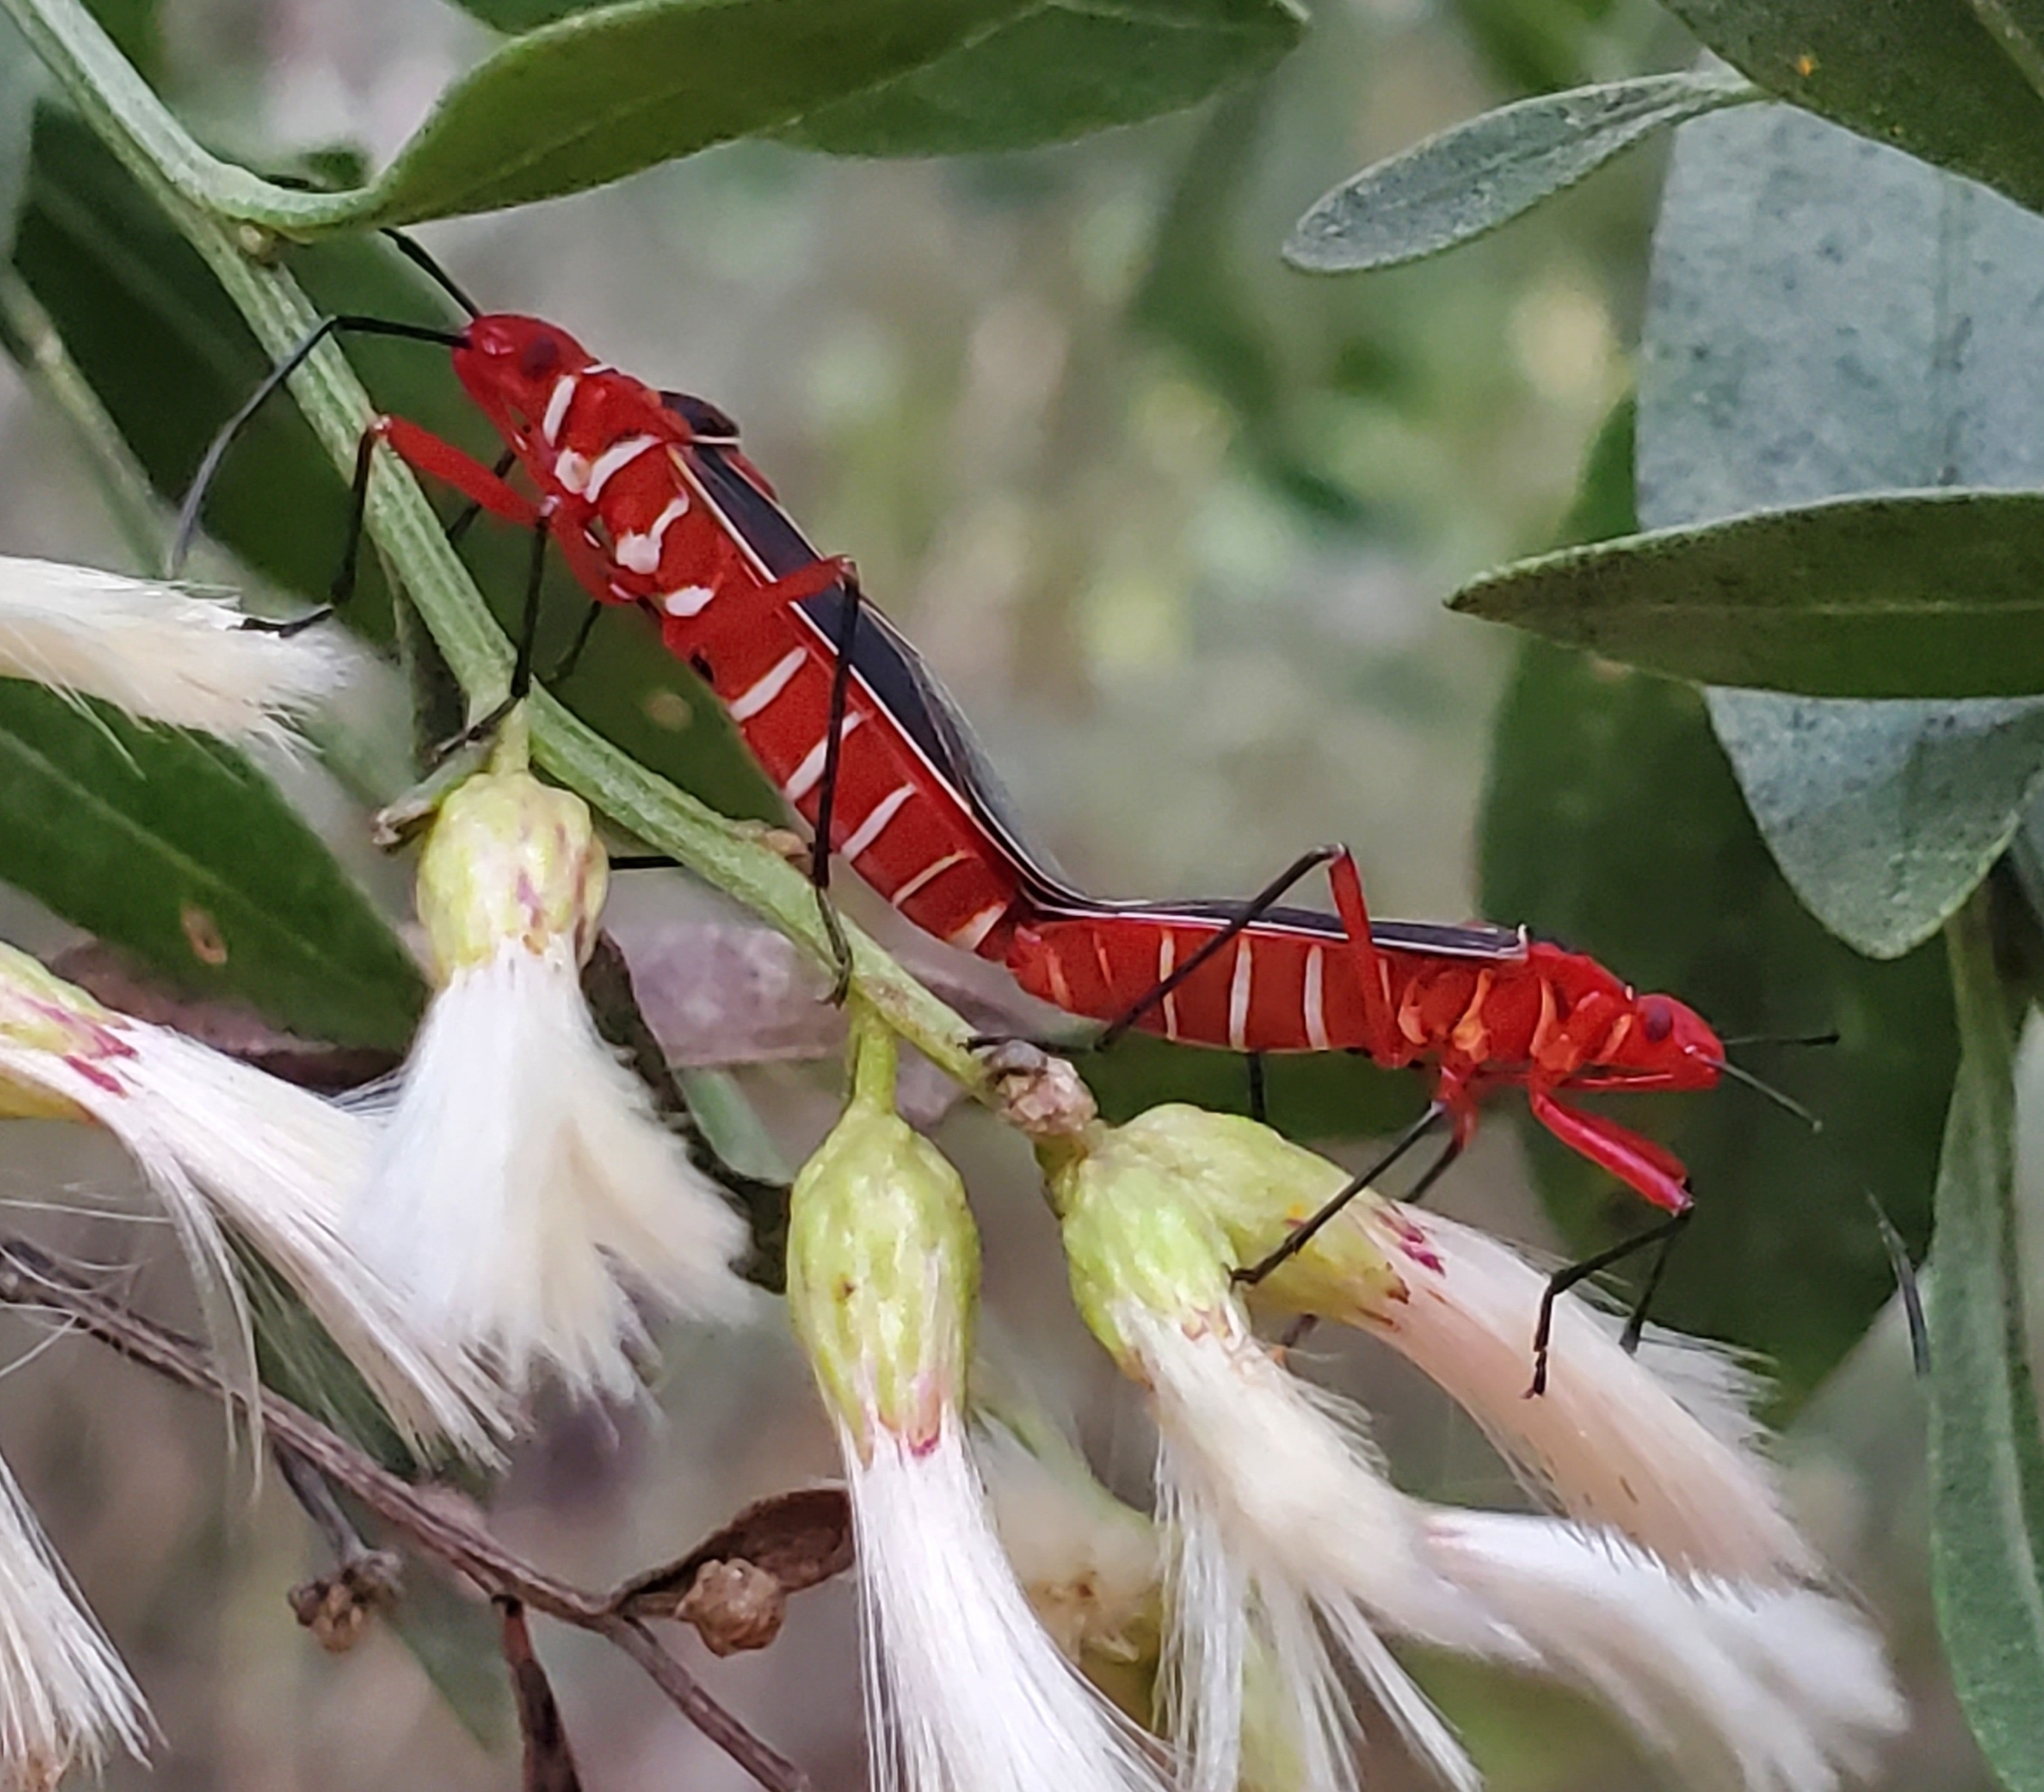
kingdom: Animalia
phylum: Arthropoda
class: Insecta
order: Hemiptera
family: Pyrrhocoridae
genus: Dysdercus
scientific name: Dysdercus suturellus
